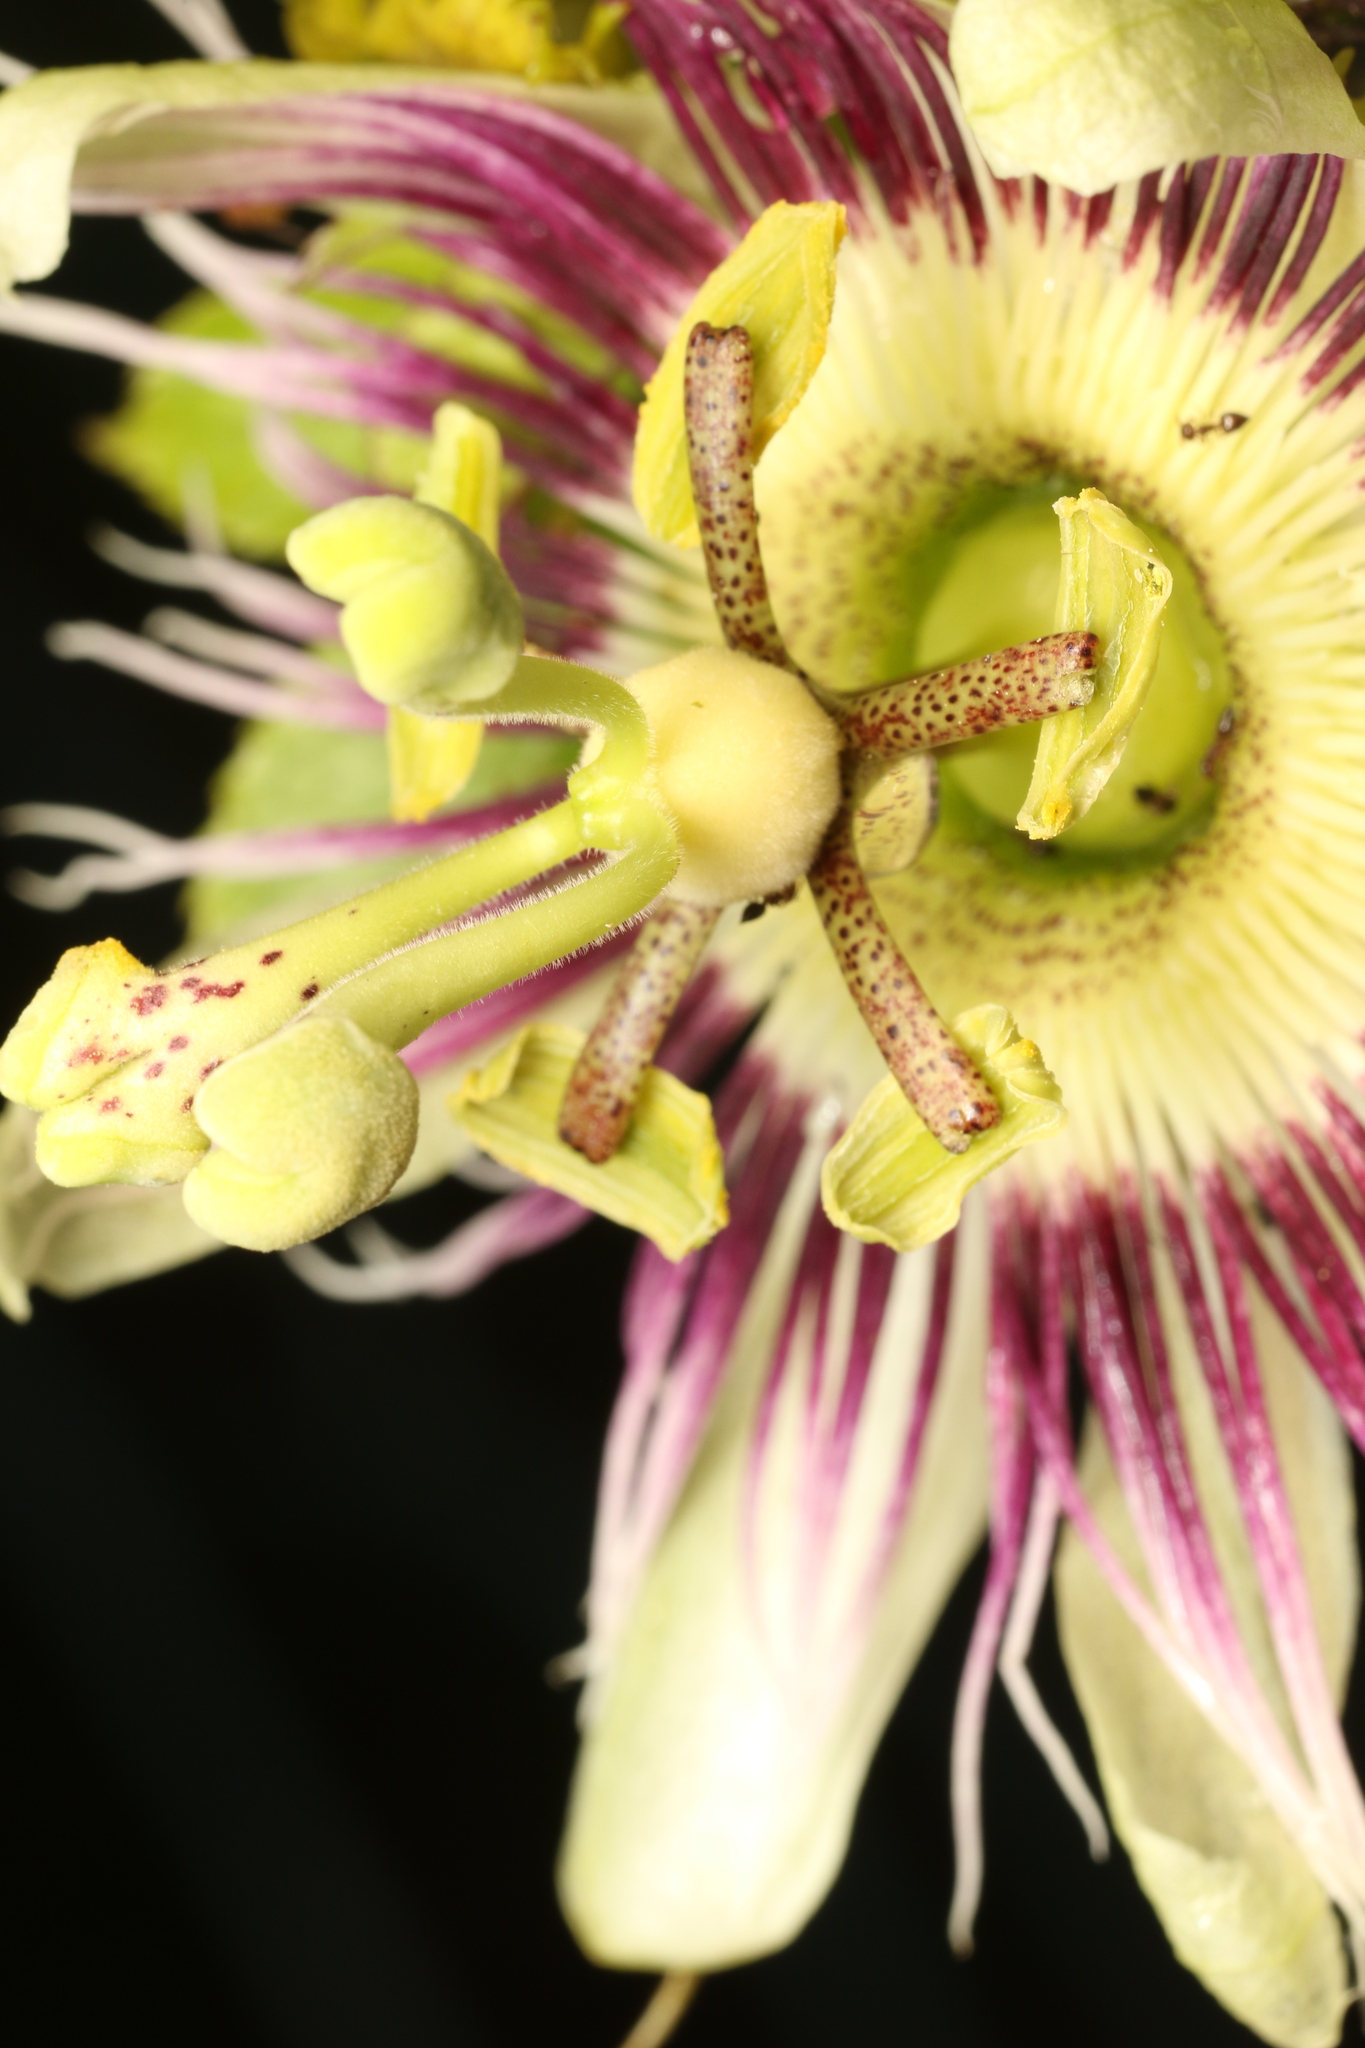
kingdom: Plantae
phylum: Tracheophyta
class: Magnoliopsida
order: Malpighiales
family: Passifloraceae
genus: Passiflora
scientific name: Passiflora edulis
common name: Purple granadilla
